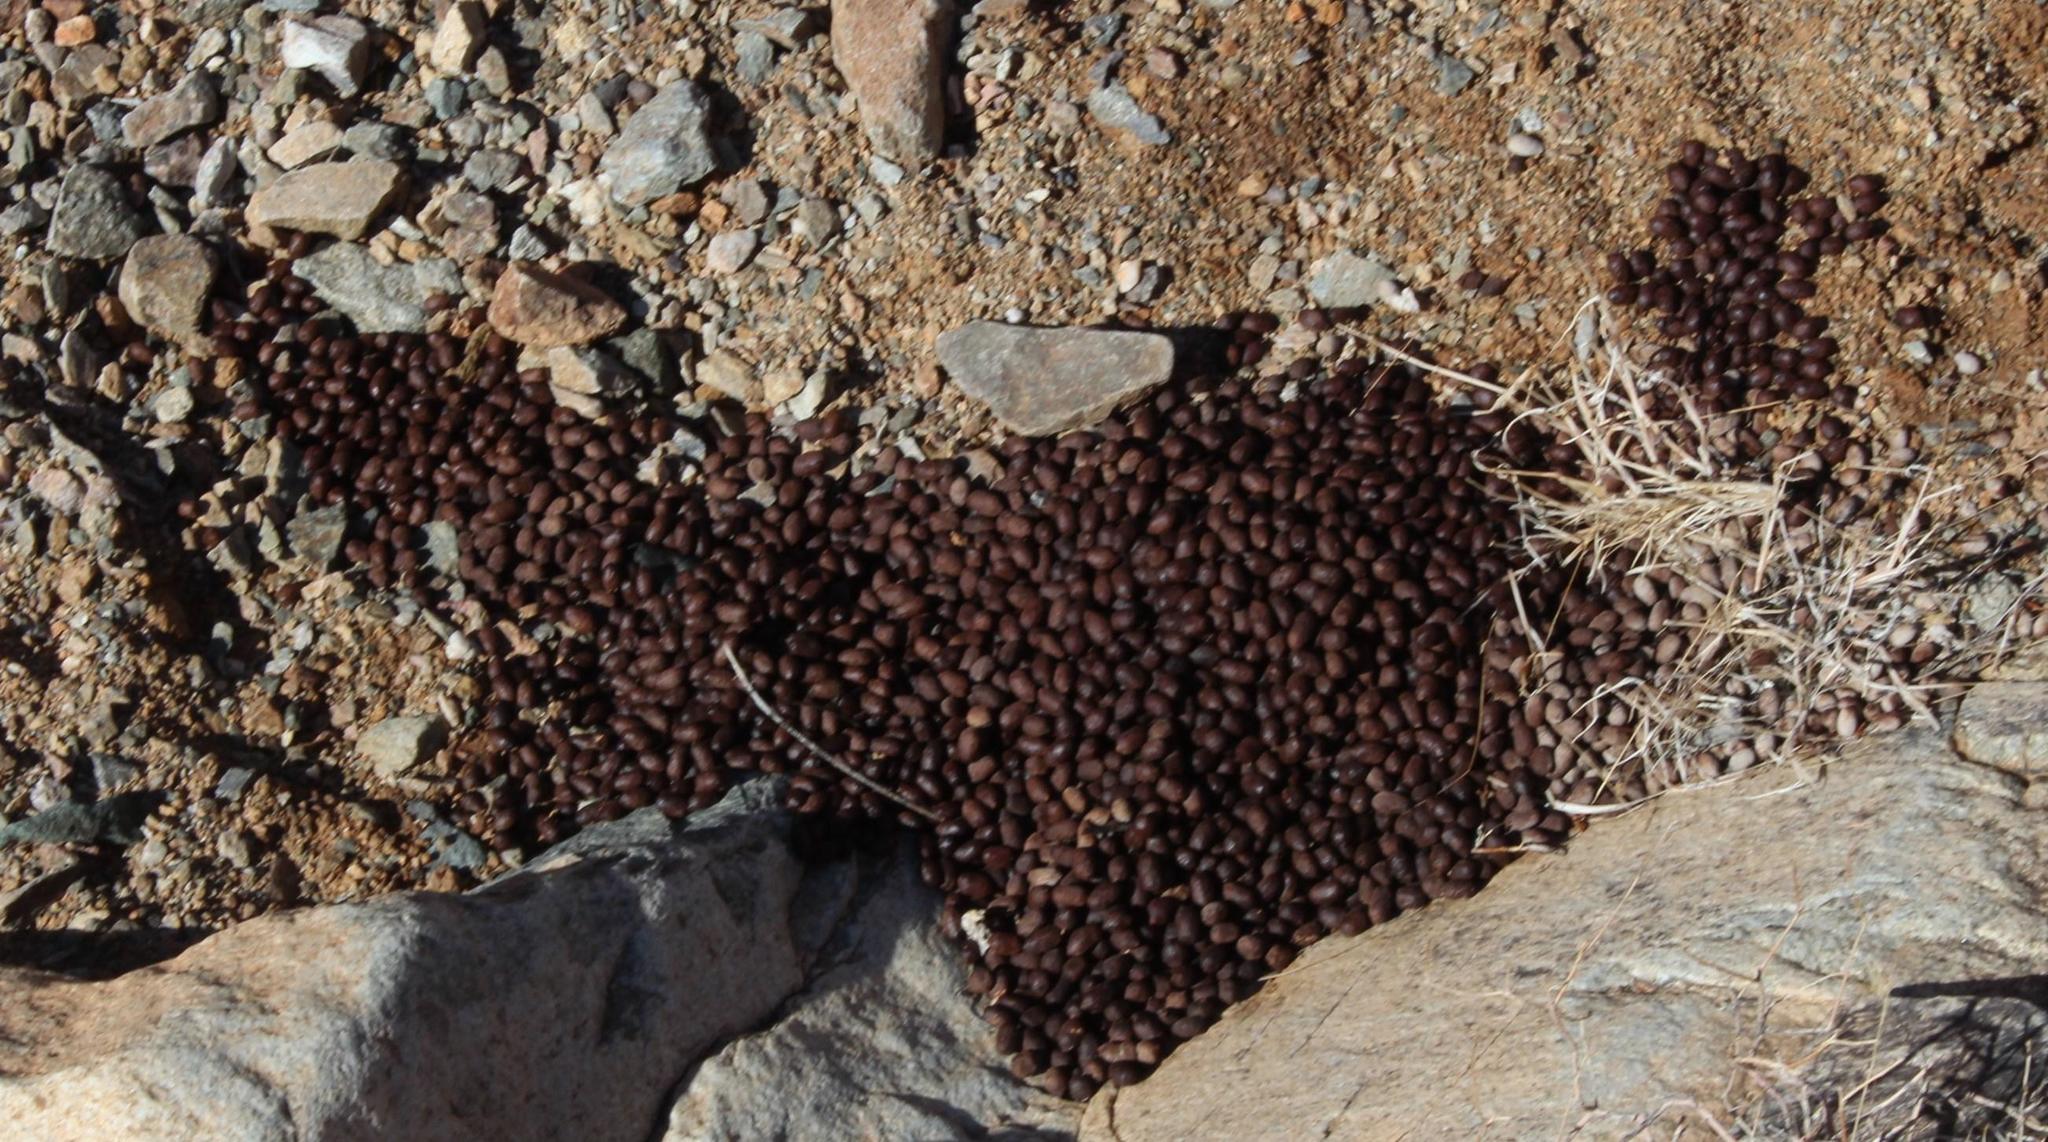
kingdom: Animalia
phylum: Chordata
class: Mammalia
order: Artiodactyla
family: Bovidae
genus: Oreotragus
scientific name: Oreotragus oreotragus
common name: Klipspringer
